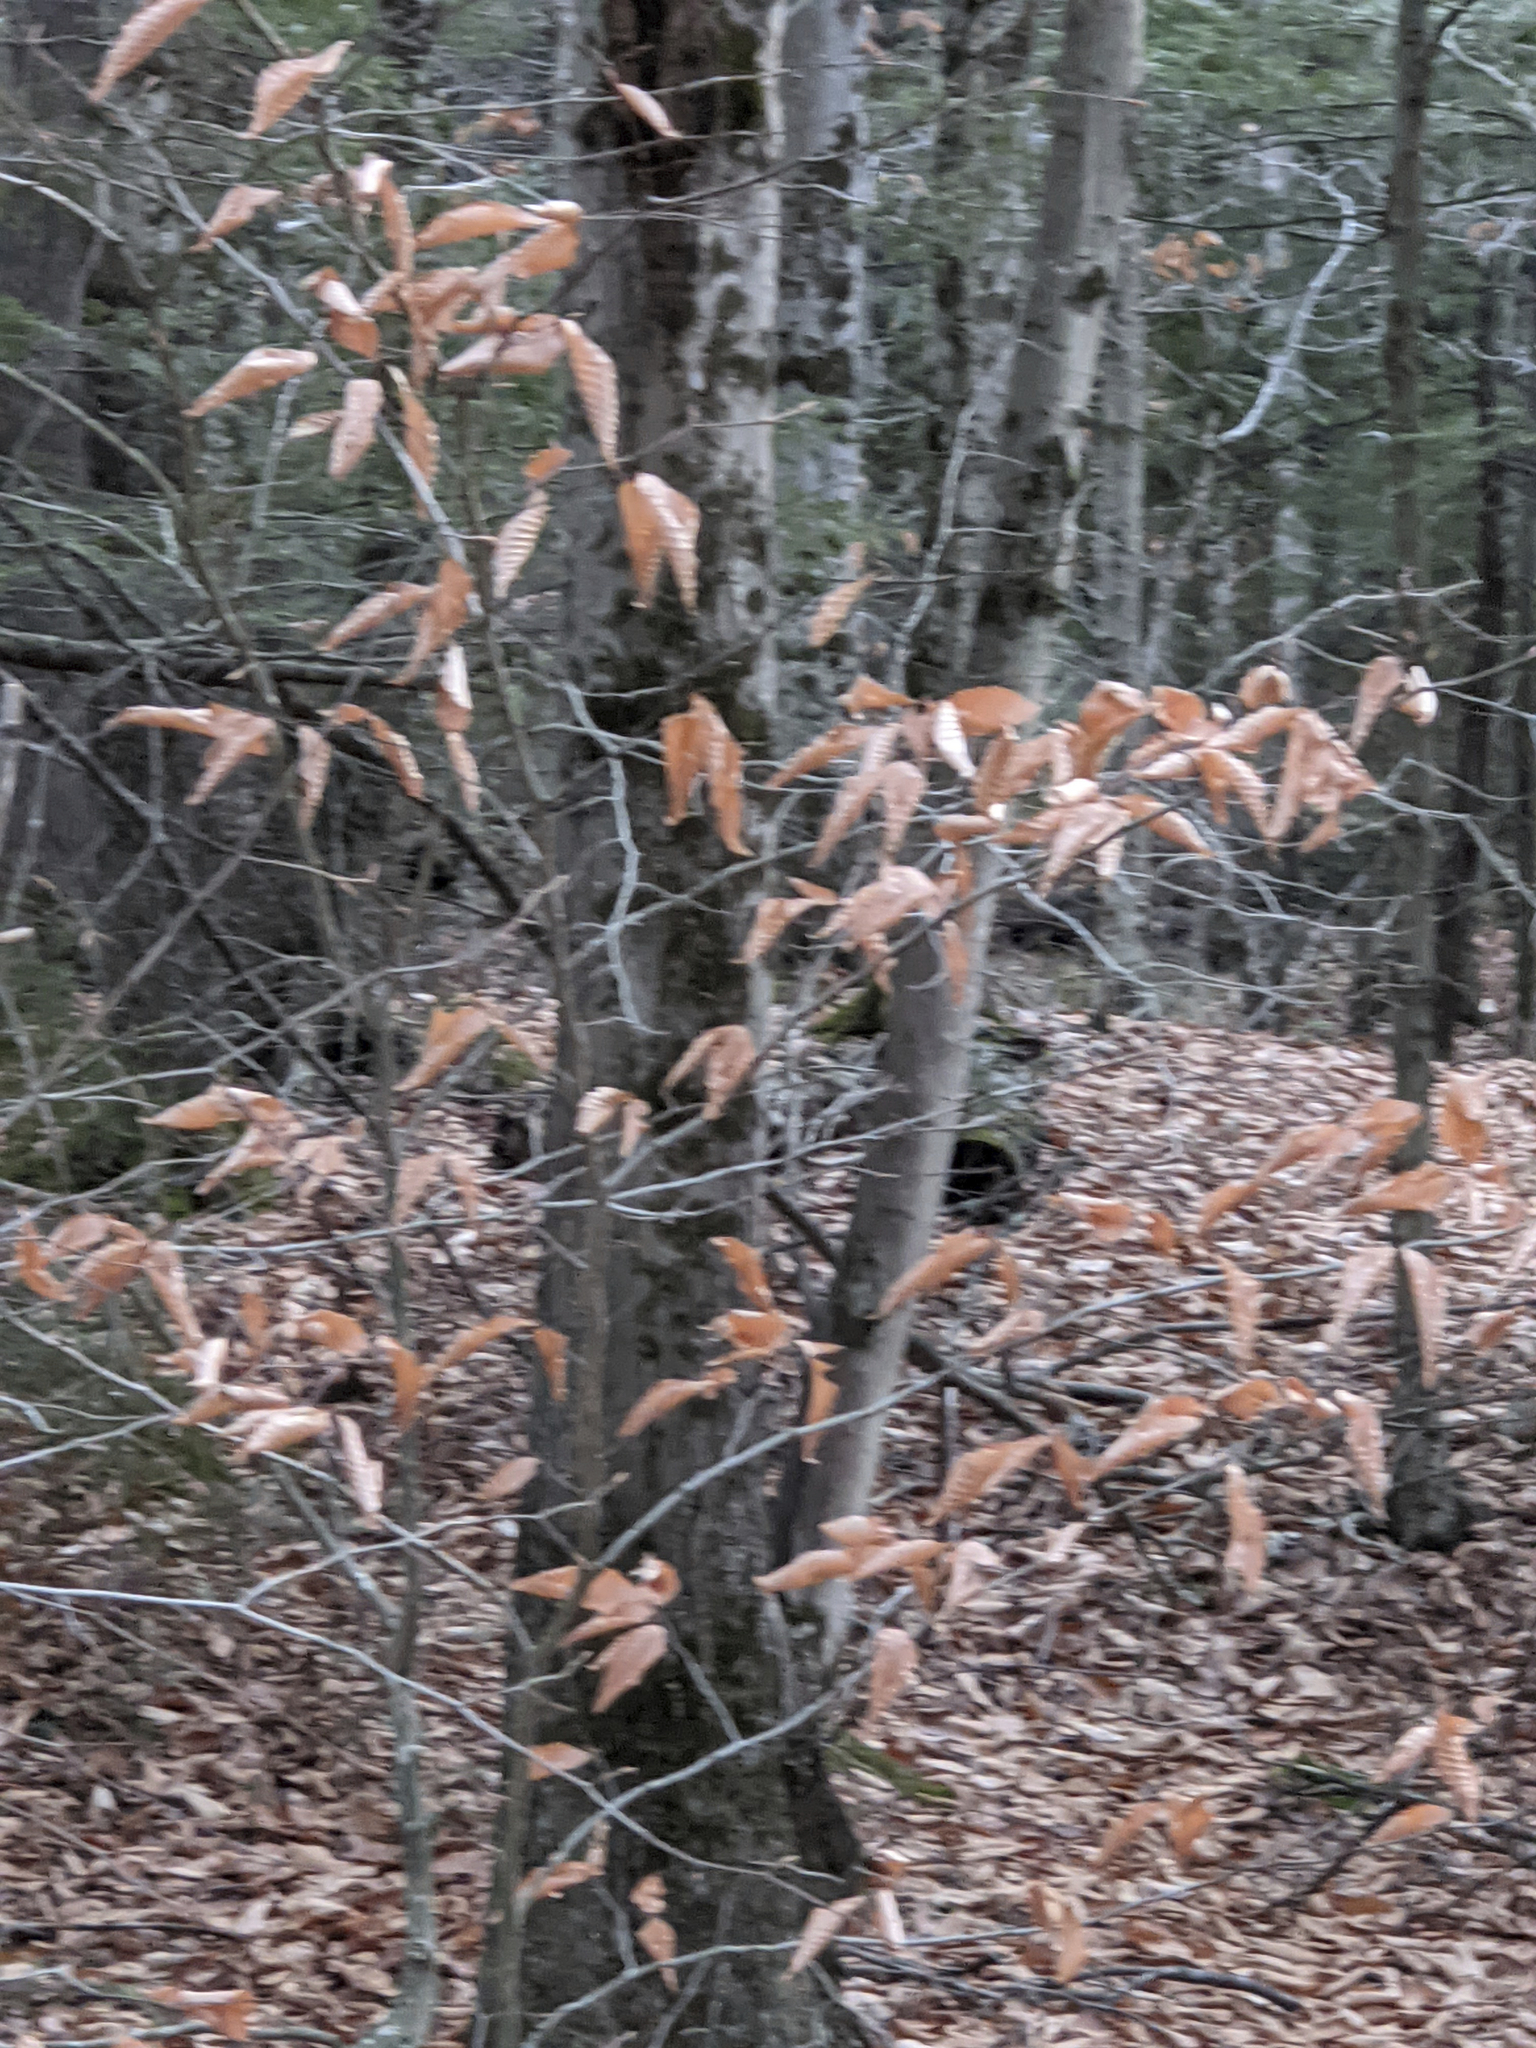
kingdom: Plantae
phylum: Tracheophyta
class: Magnoliopsida
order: Fagales
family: Fagaceae
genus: Fagus
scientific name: Fagus grandifolia
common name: American beech
